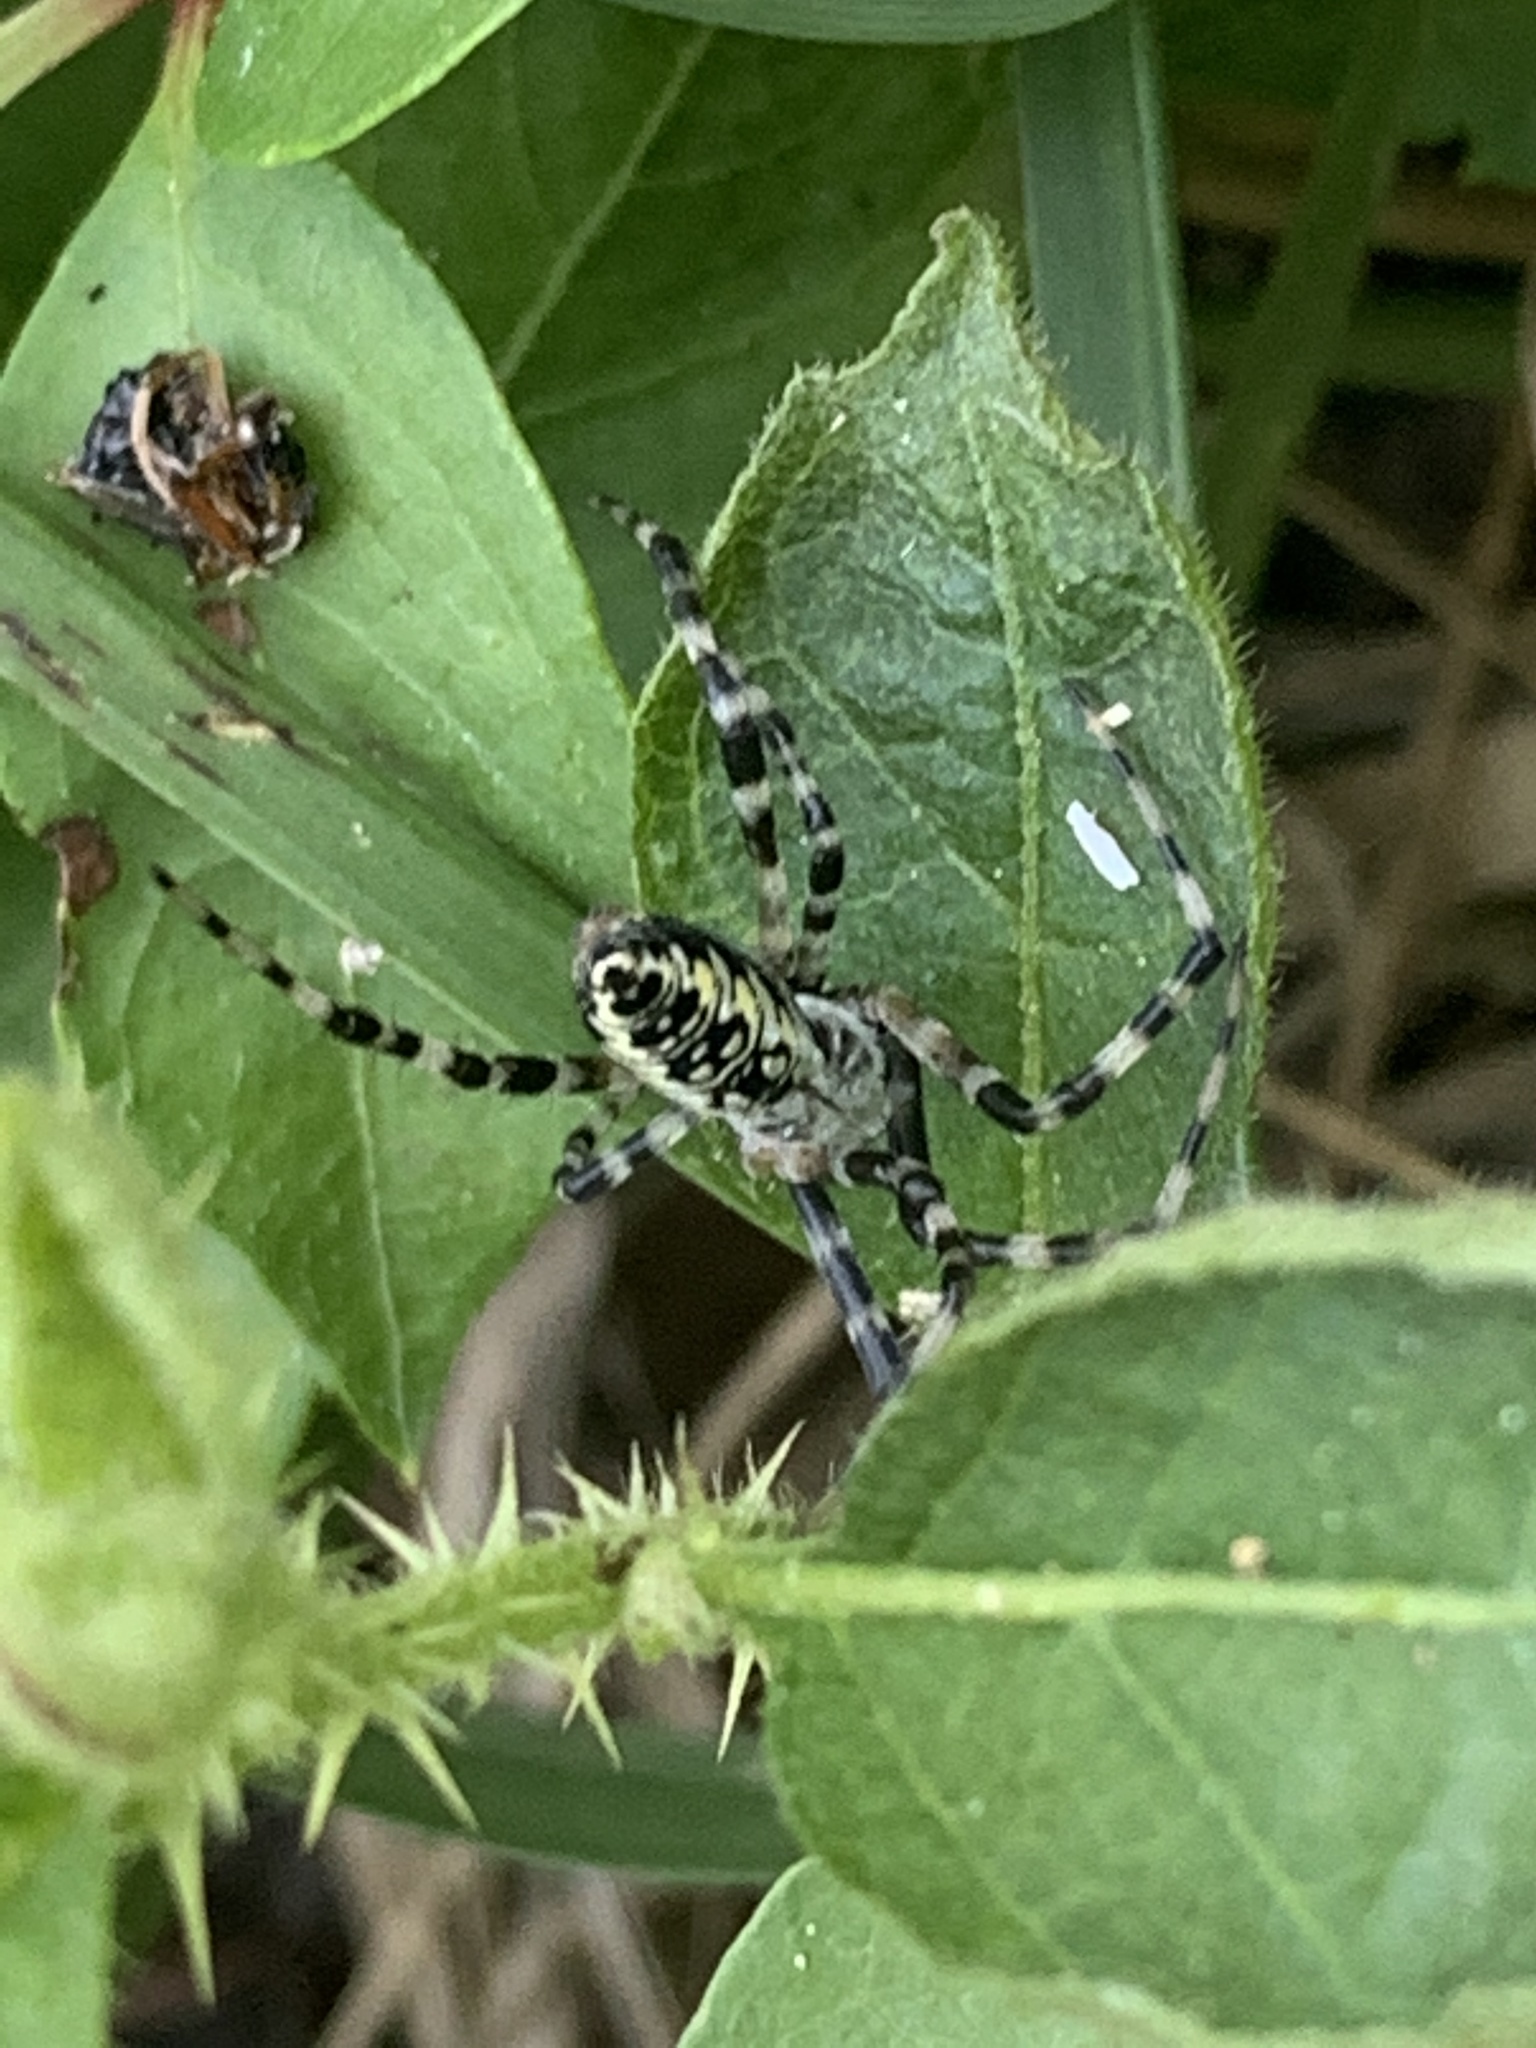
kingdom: Animalia
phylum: Arthropoda
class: Arachnida
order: Araneae
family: Araneidae
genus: Argiope
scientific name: Argiope aurantia
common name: Orb weavers
